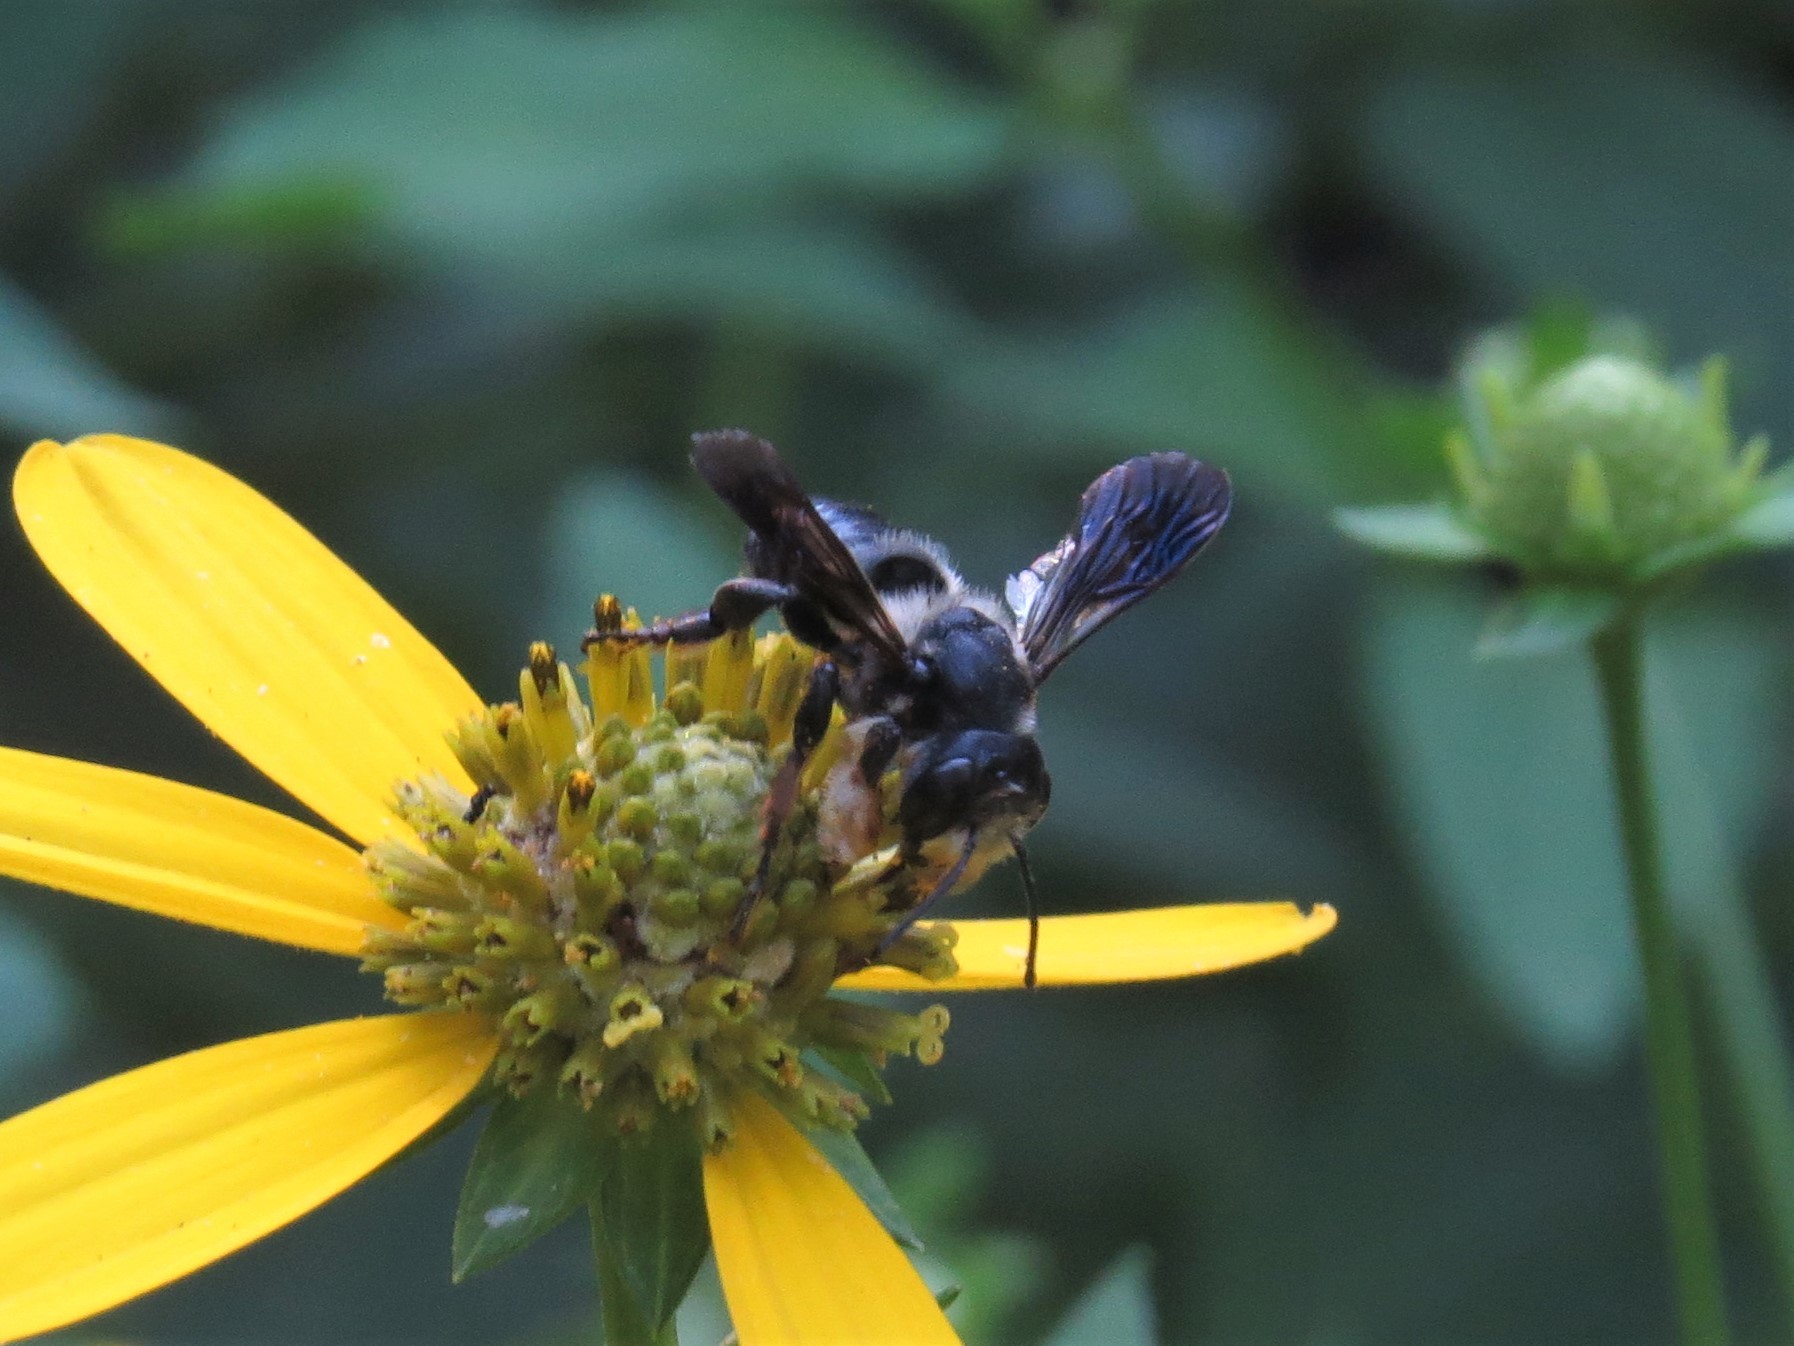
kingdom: Animalia
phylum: Arthropoda
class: Insecta
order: Hymenoptera
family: Megachilidae
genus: Megachile
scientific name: Megachile xylocopoides
